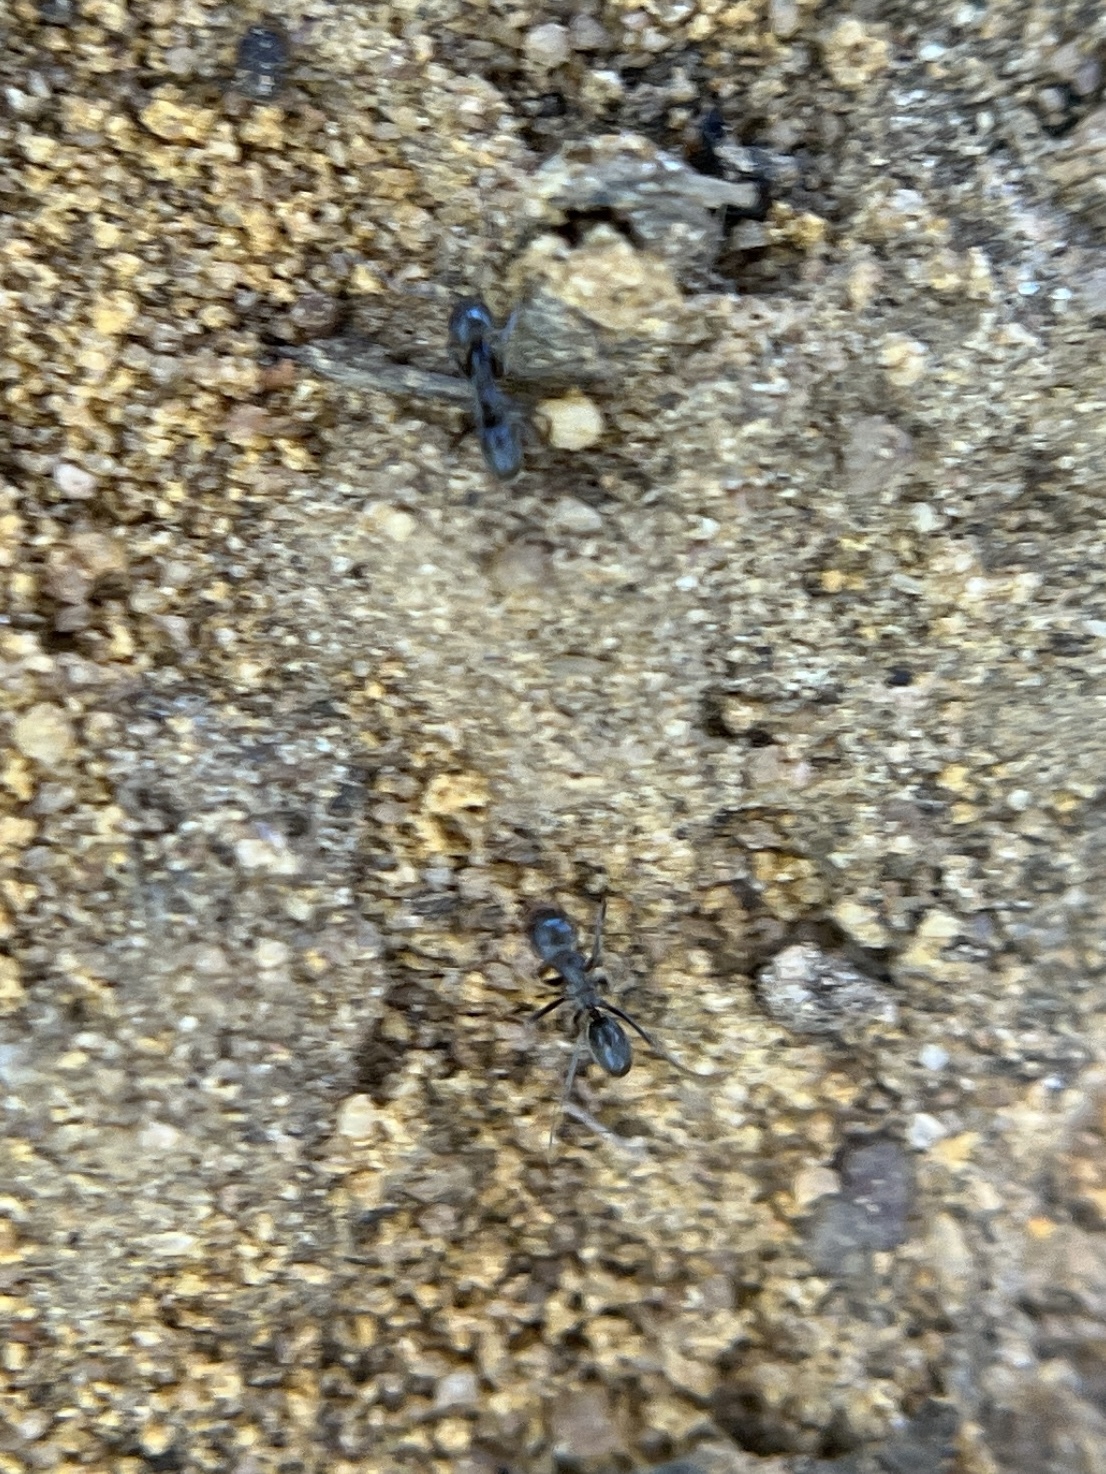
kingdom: Animalia
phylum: Arthropoda
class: Insecta
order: Hymenoptera
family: Formicidae
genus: Dorymyrmex
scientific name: Dorymyrmex
